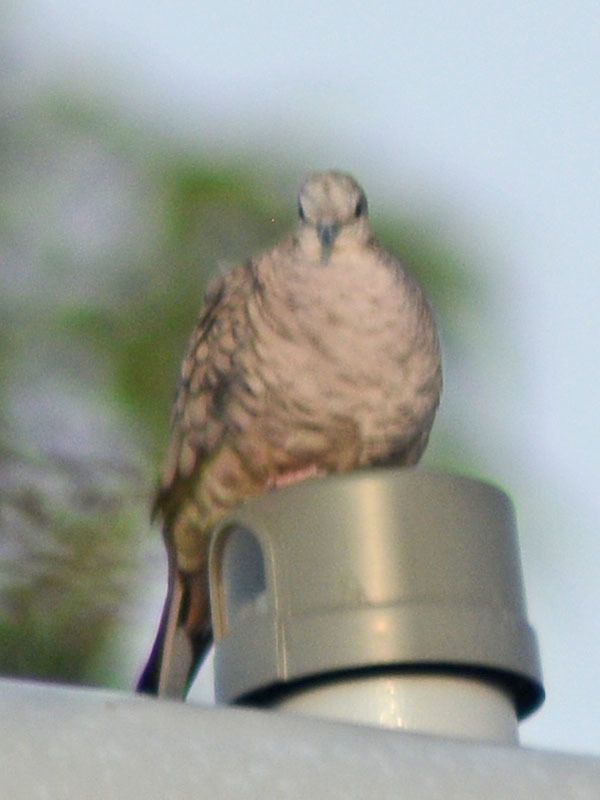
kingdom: Animalia
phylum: Chordata
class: Aves
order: Columbiformes
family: Columbidae
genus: Columbina
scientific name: Columbina inca
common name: Inca dove
